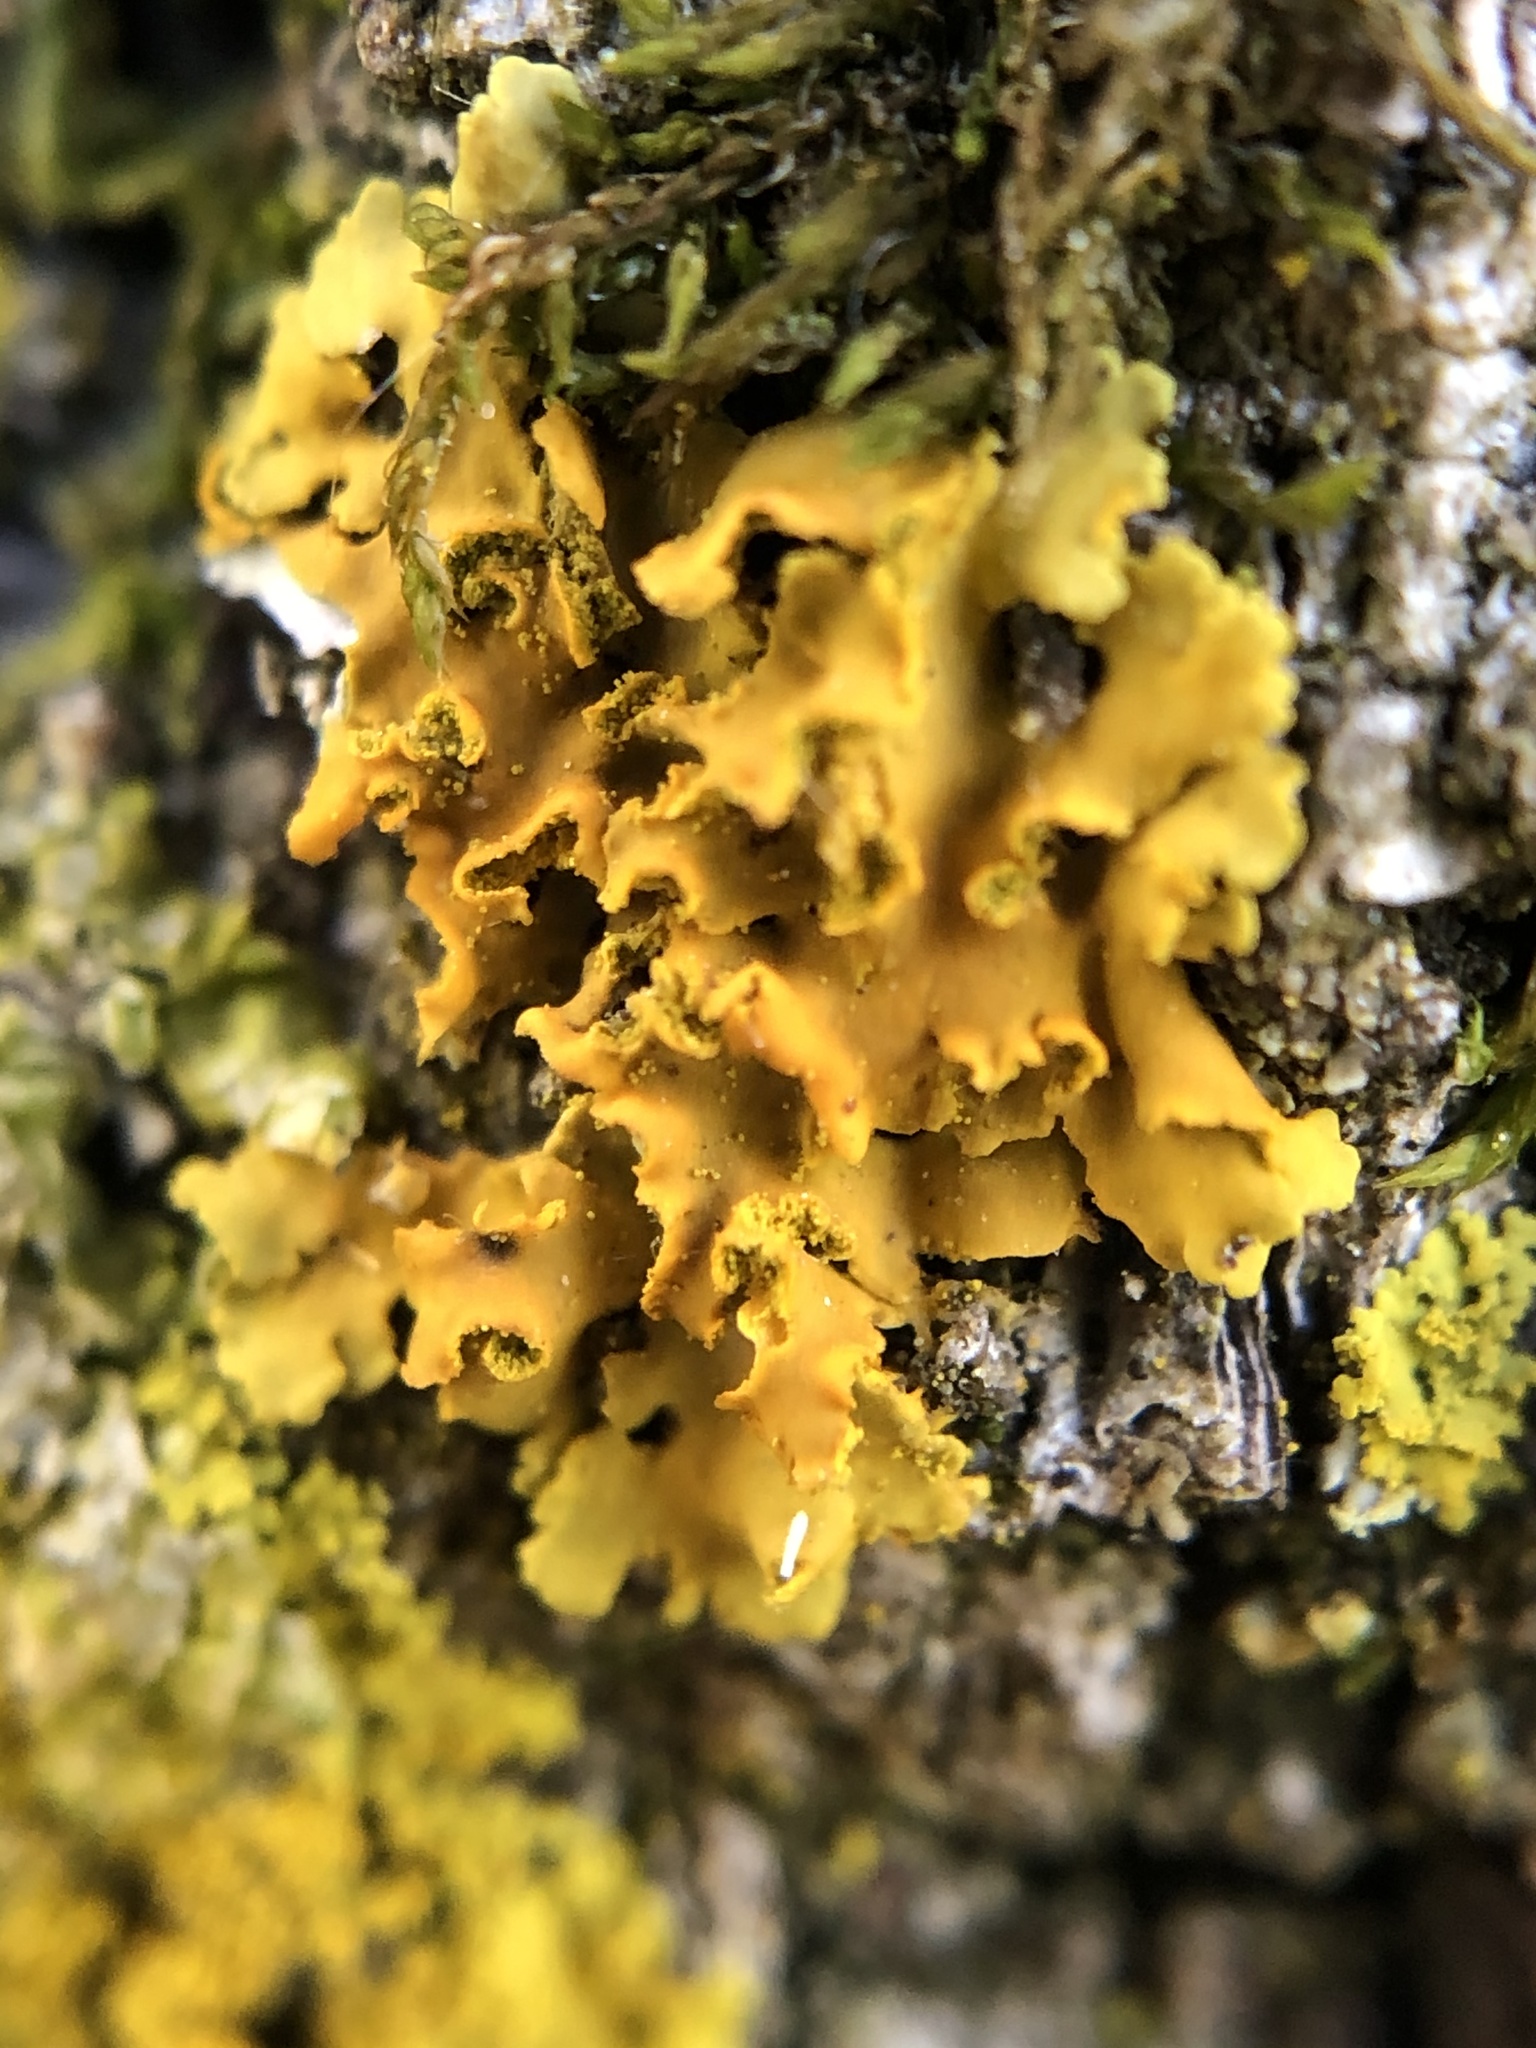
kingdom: Fungi
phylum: Ascomycota
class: Lecanoromycetes
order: Teloschistales
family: Teloschistaceae
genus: Oxneria
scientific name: Oxneria fallax
